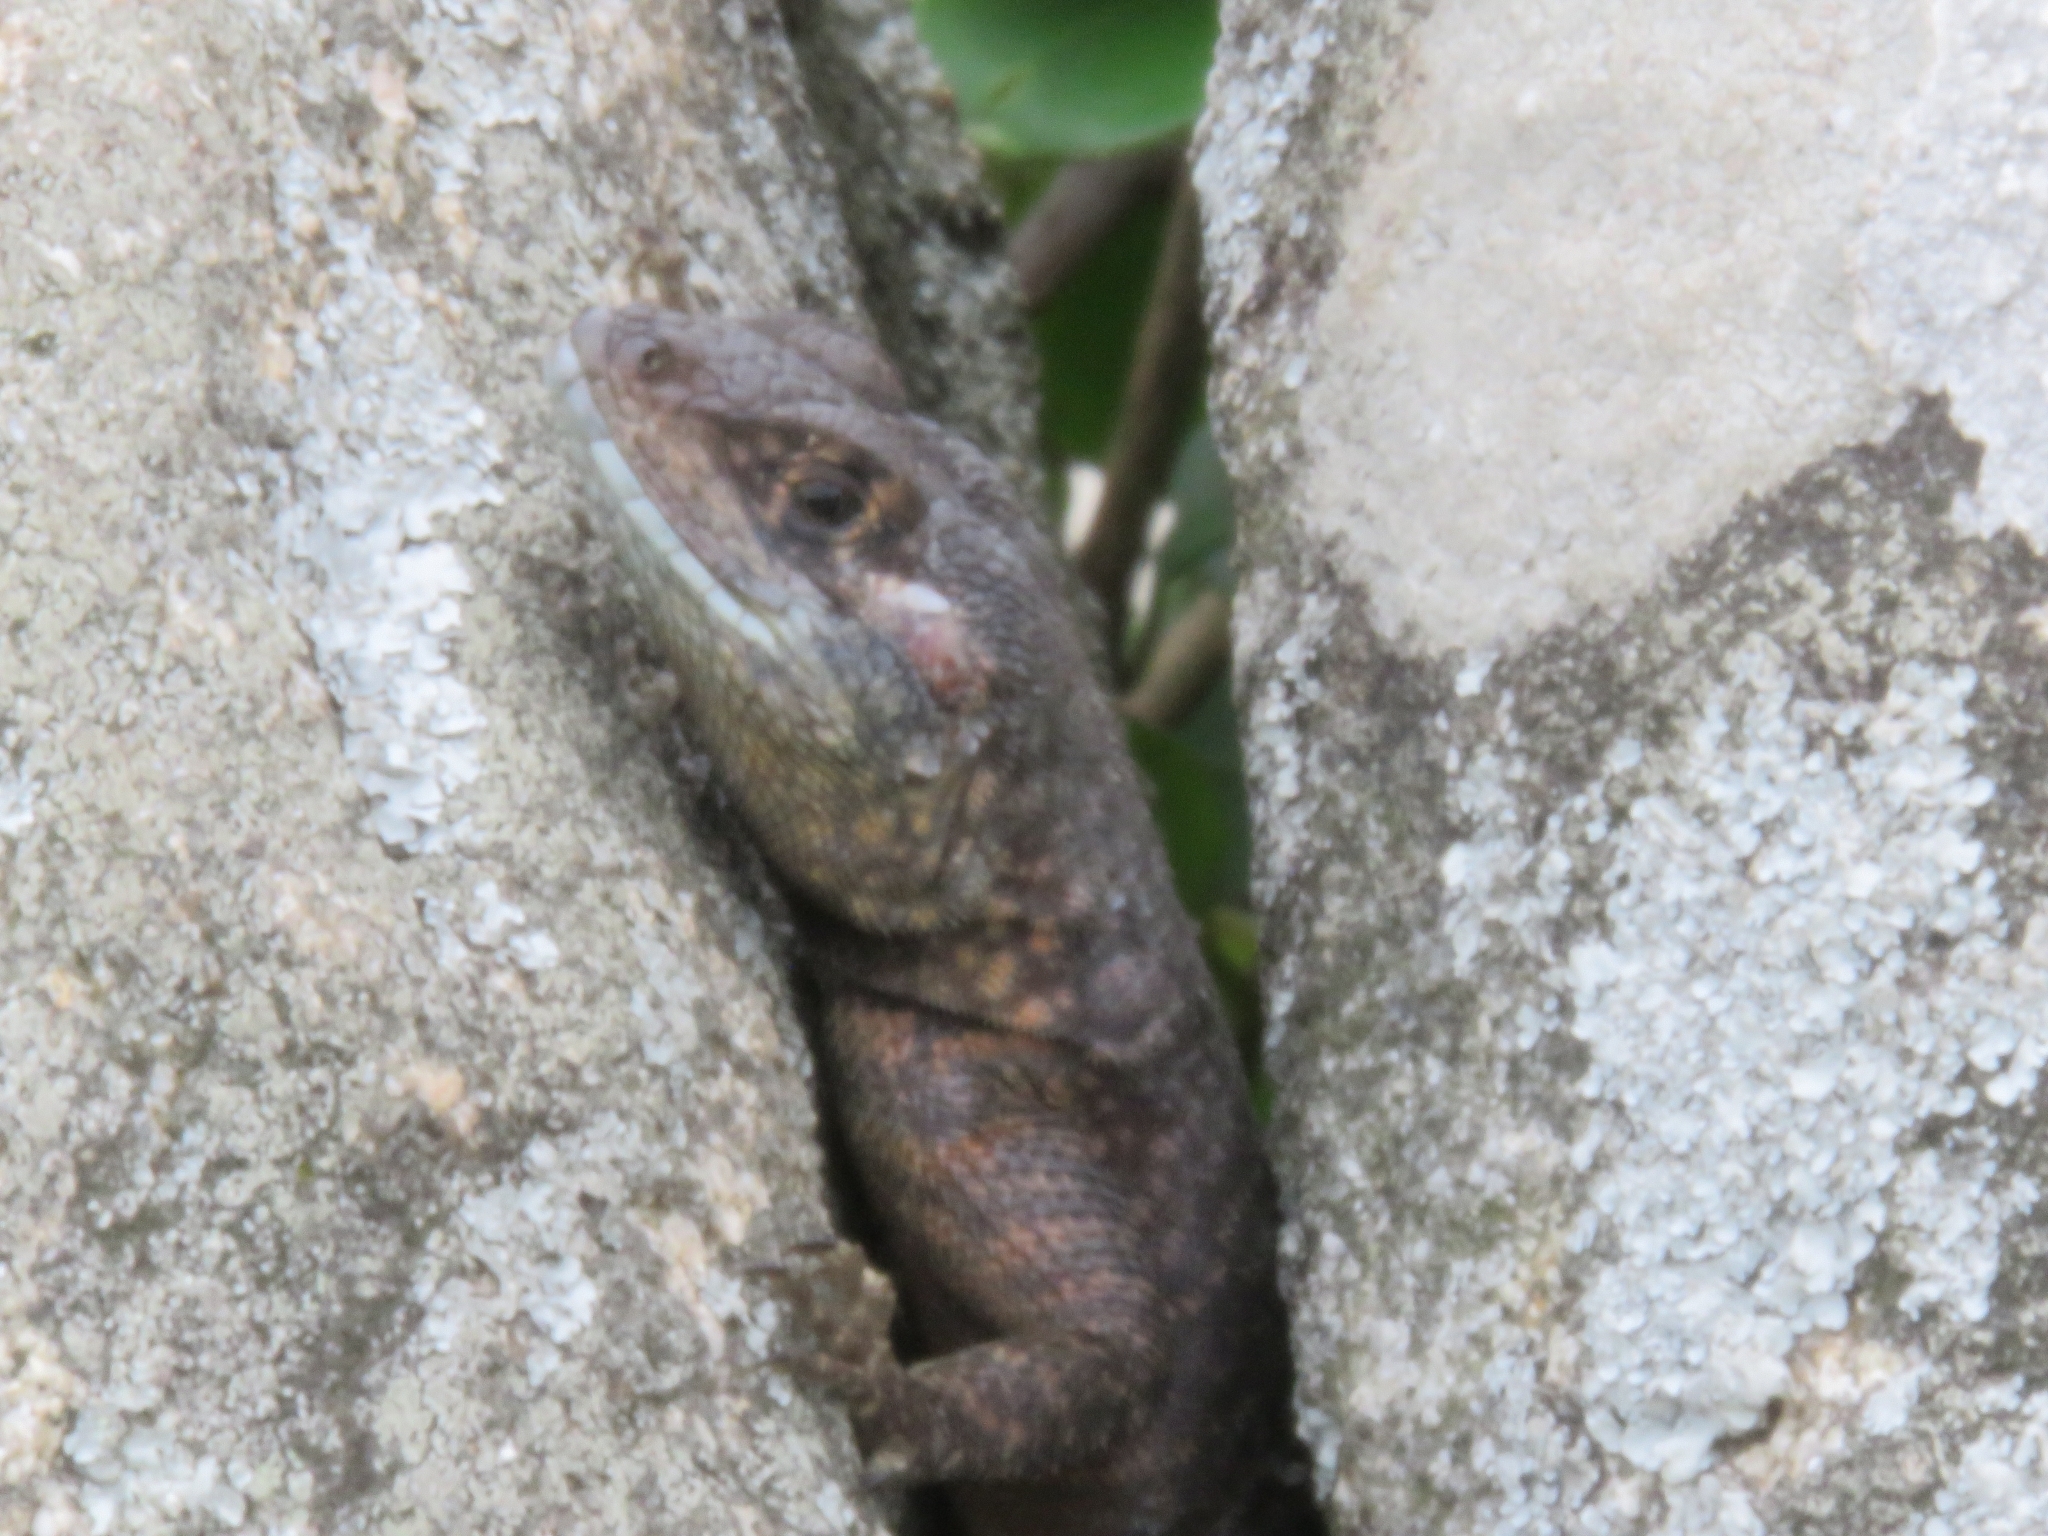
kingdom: Animalia
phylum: Chordata
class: Squamata
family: Tropiduridae
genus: Tropidurus
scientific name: Tropidurus imbituba
